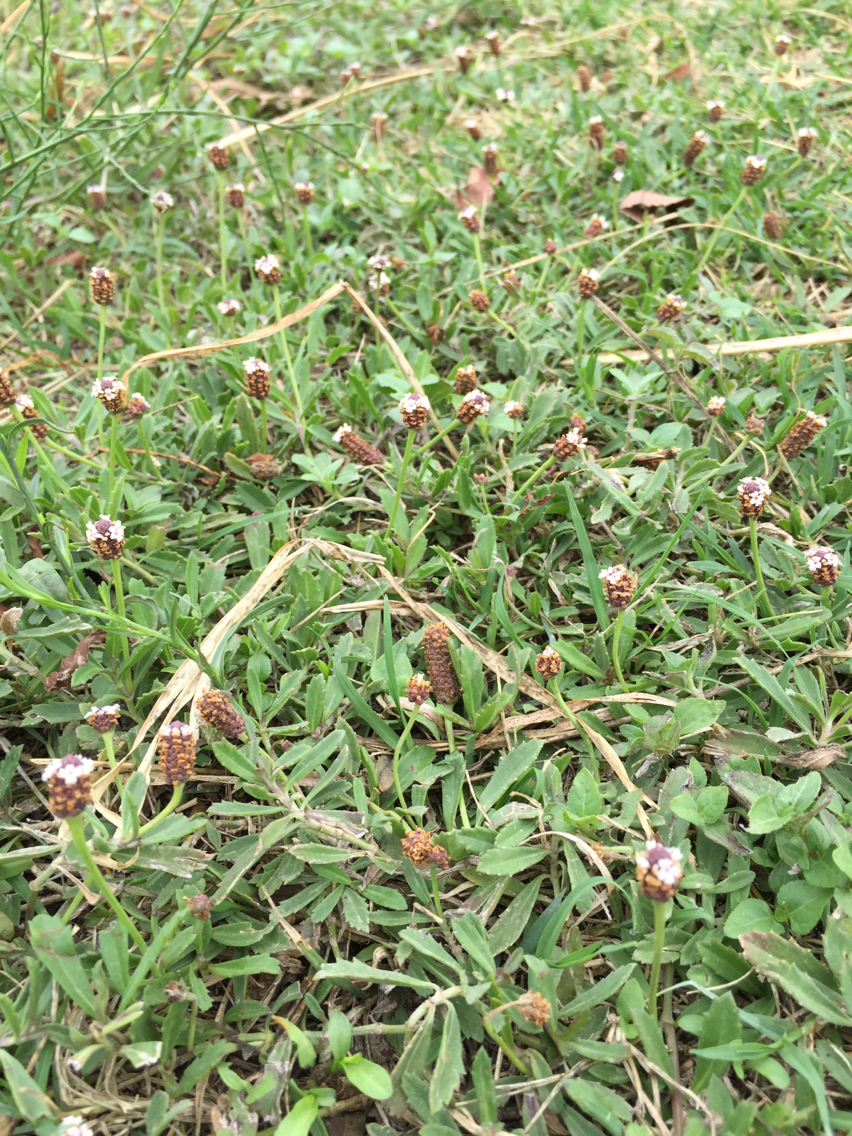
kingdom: Plantae
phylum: Tracheophyta
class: Magnoliopsida
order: Lamiales
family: Verbenaceae
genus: Phyla
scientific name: Phyla nodiflora
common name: Frogfruit
